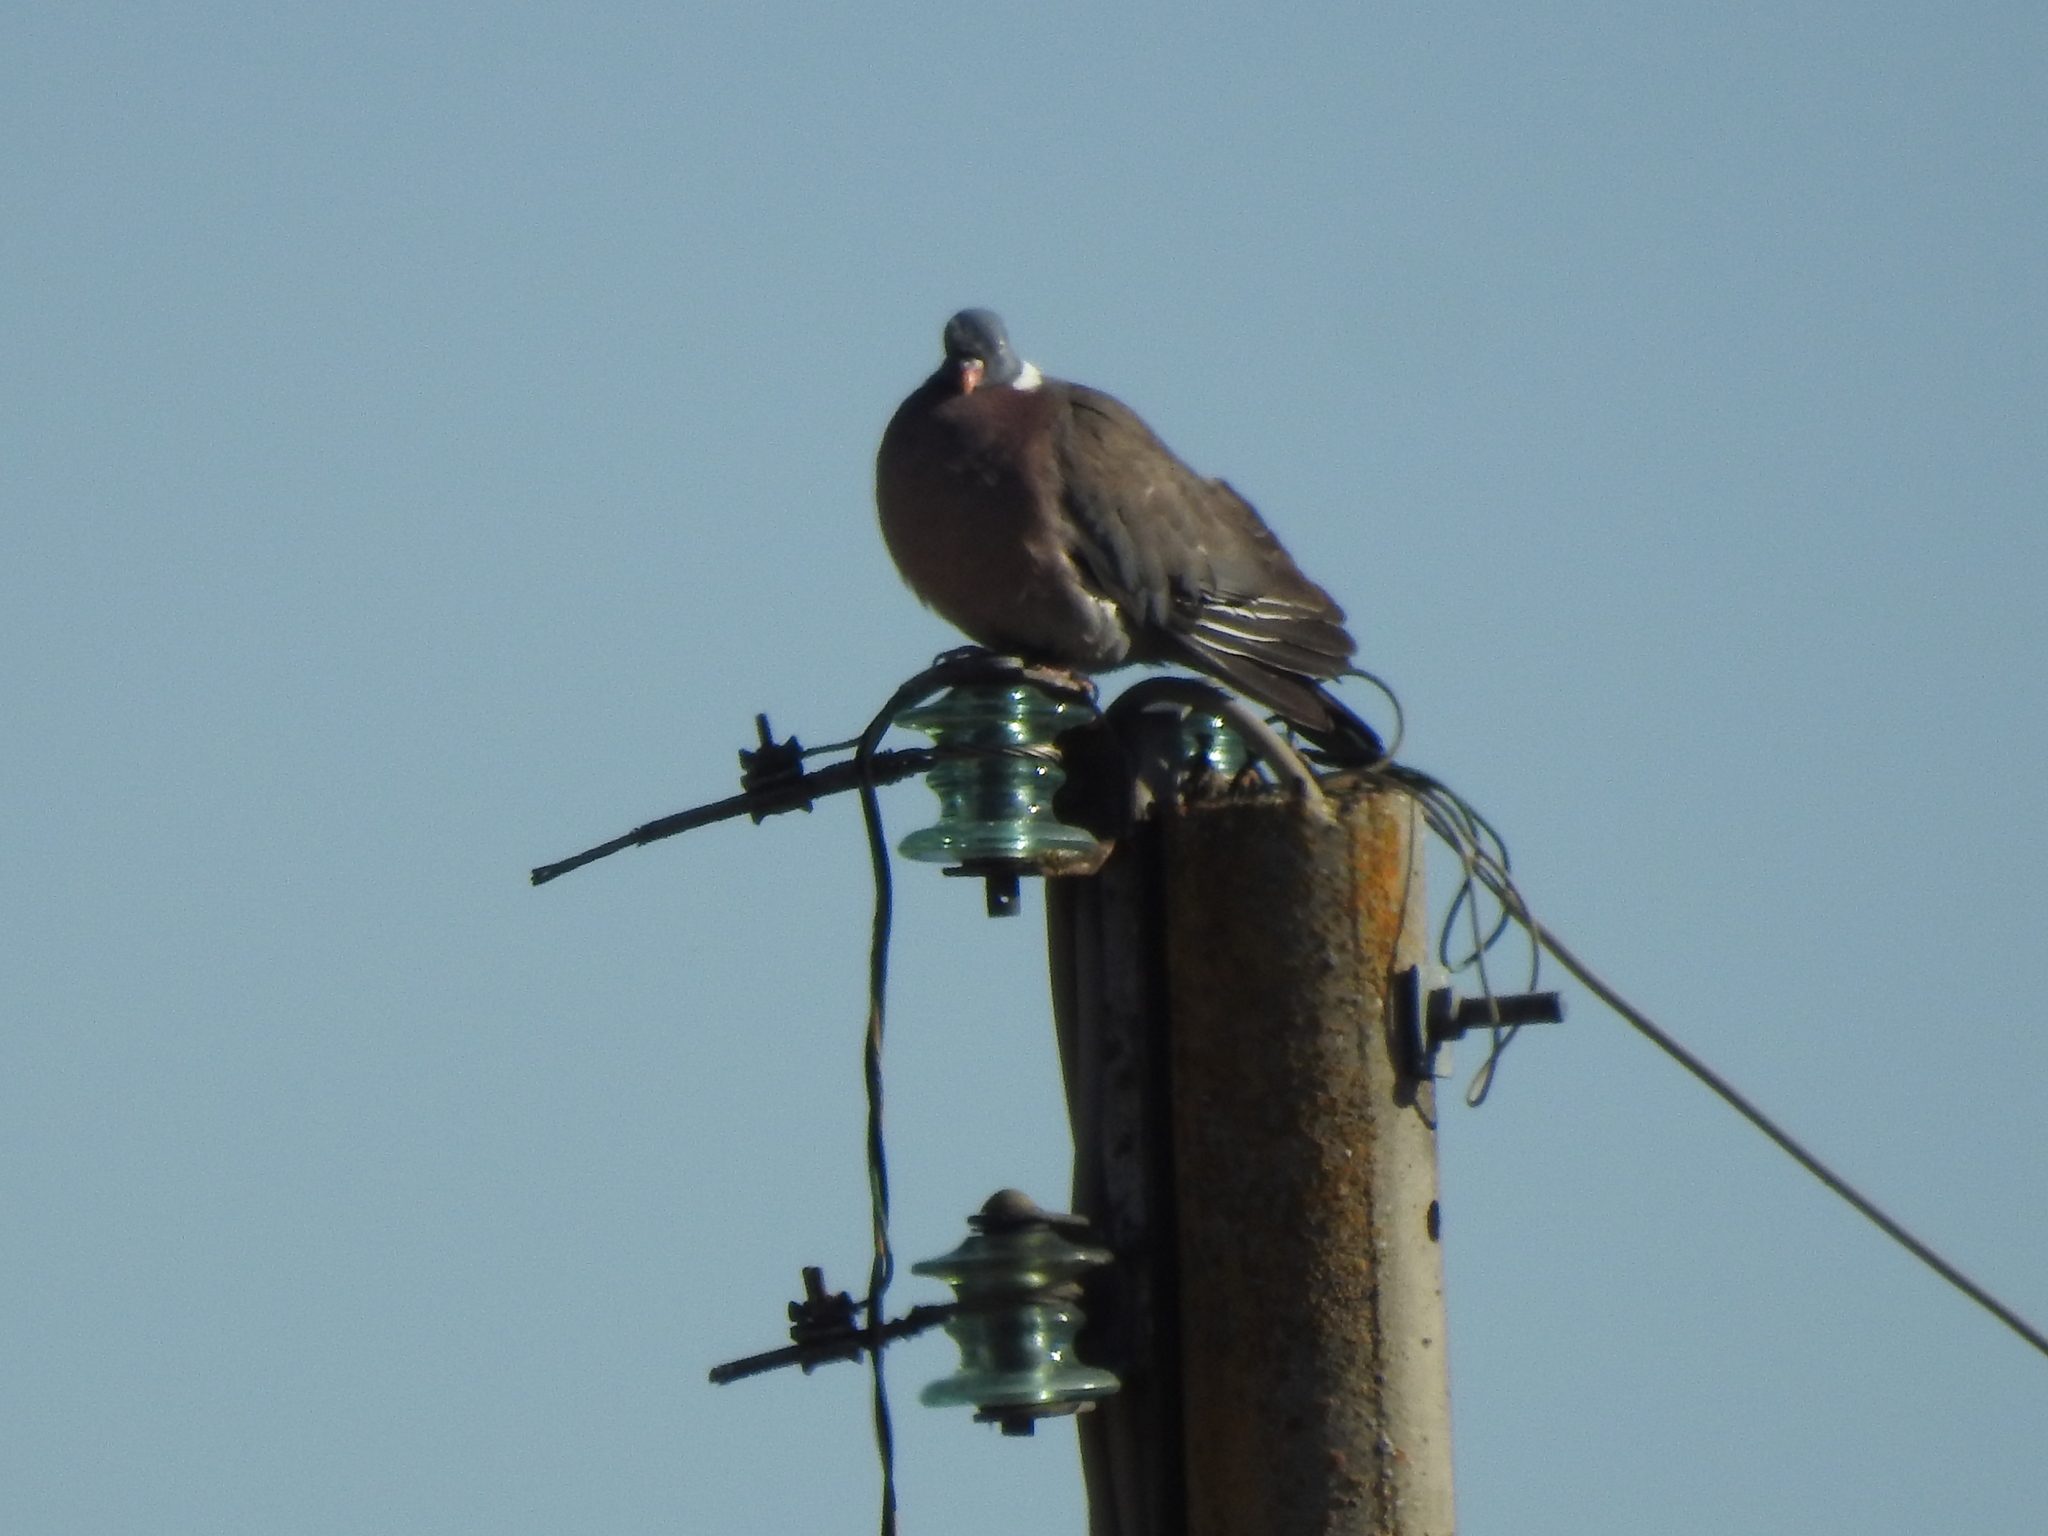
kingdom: Animalia
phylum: Chordata
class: Aves
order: Columbiformes
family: Columbidae
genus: Columba
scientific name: Columba palumbus
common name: Common wood pigeon
